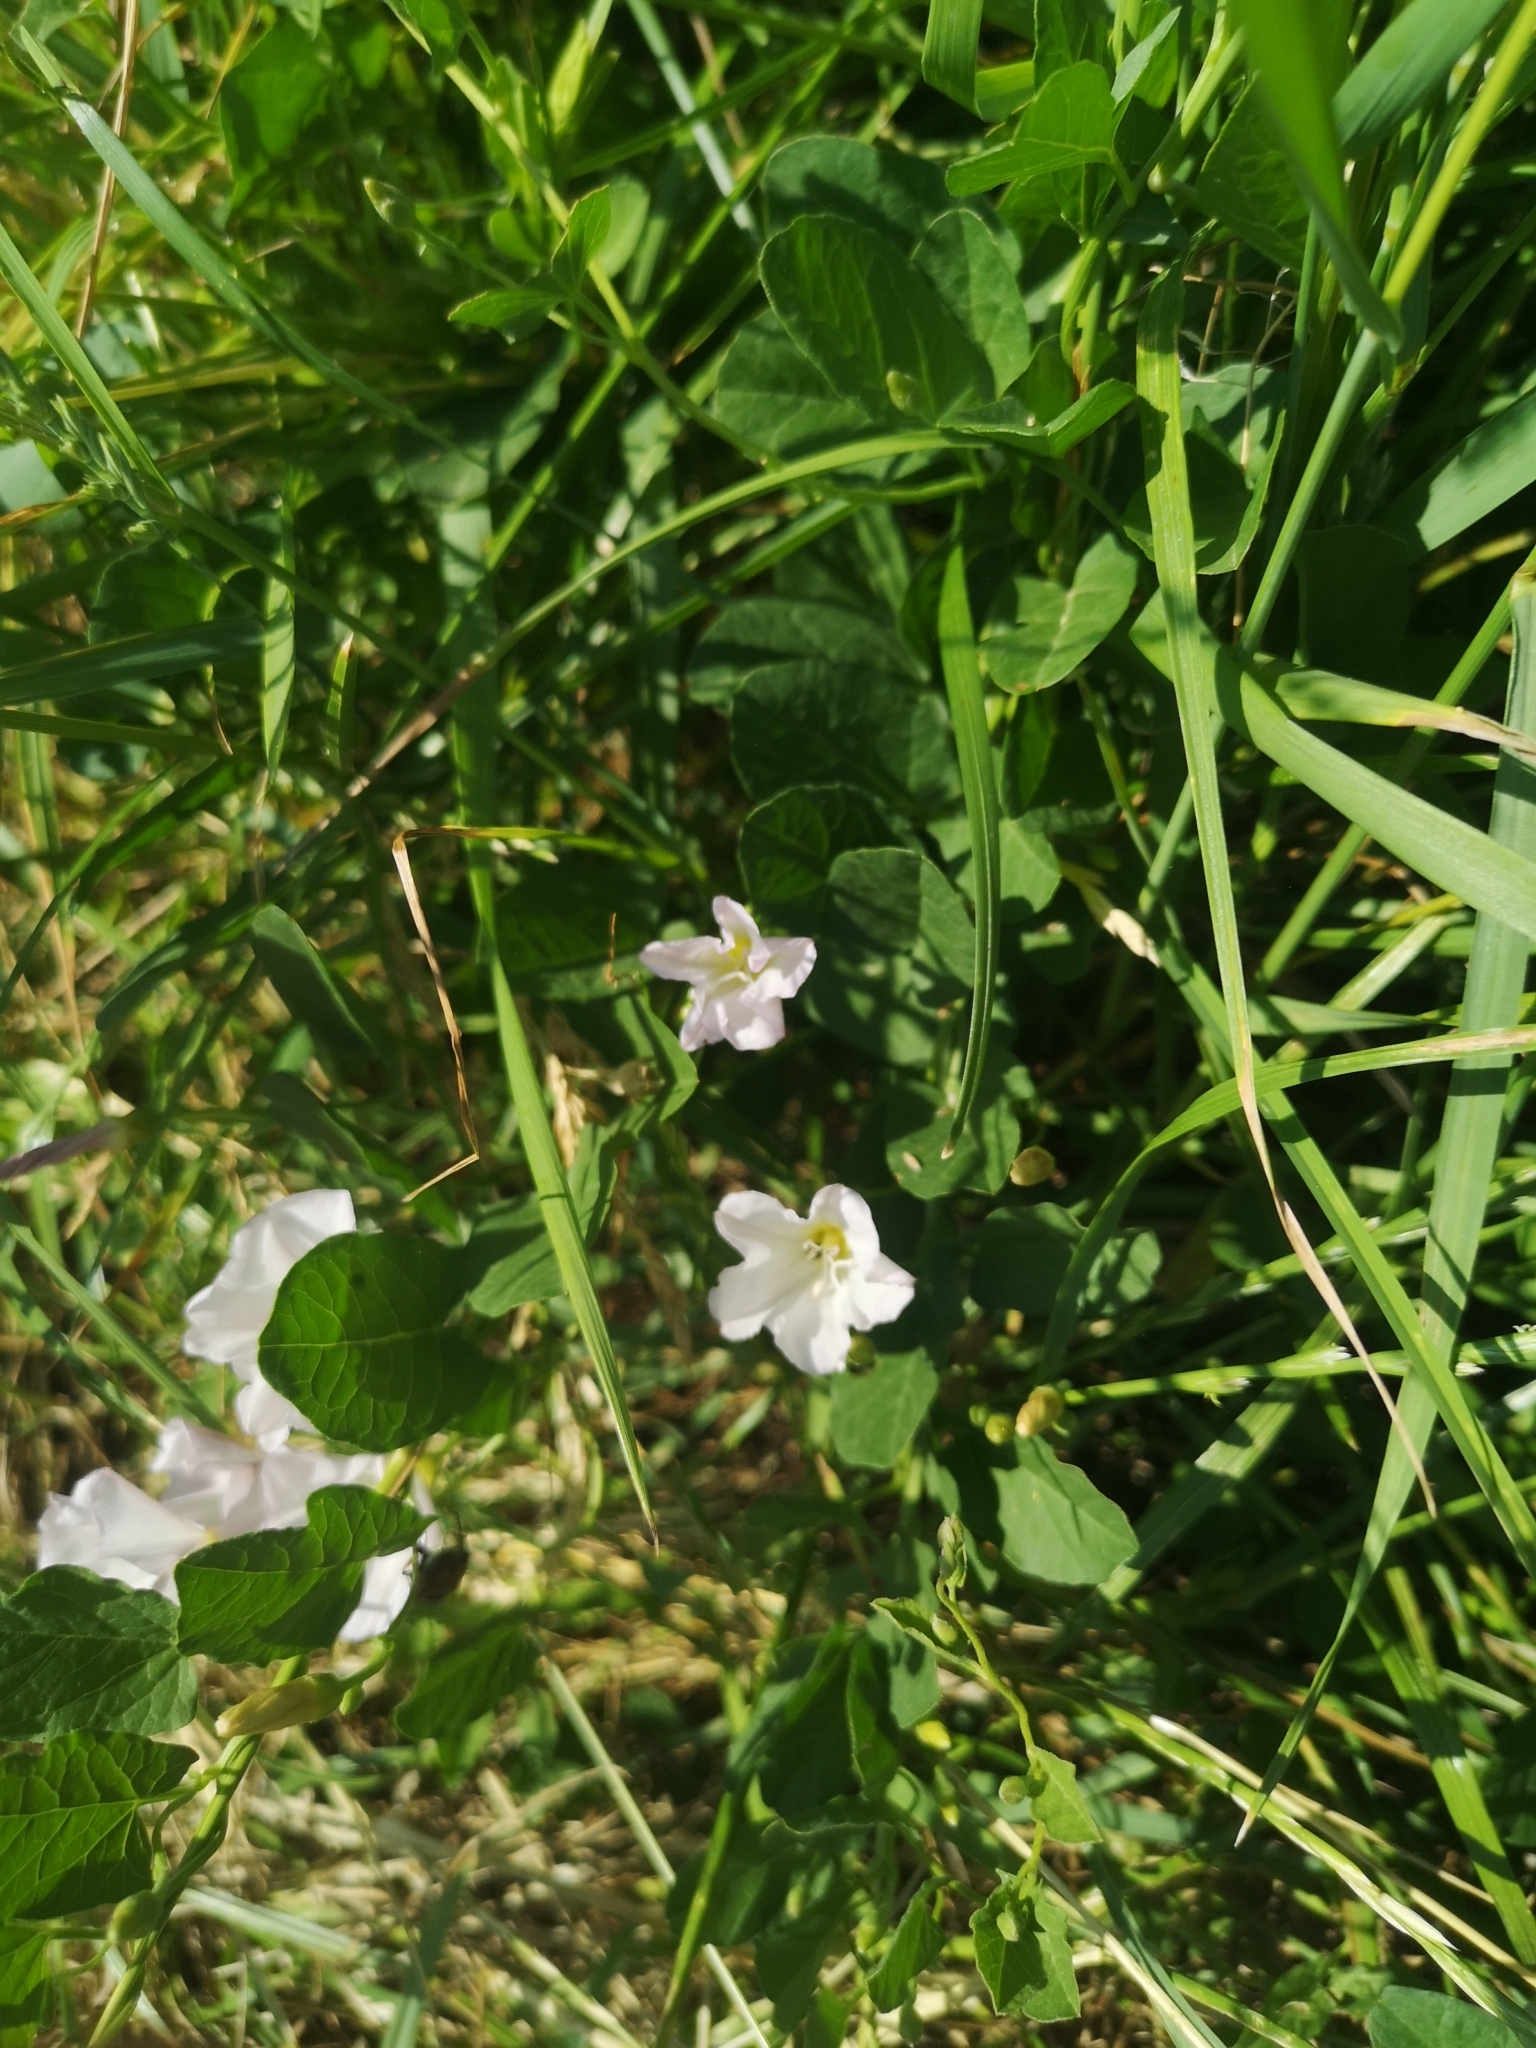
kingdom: Plantae
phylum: Tracheophyta
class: Magnoliopsida
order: Solanales
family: Convolvulaceae
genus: Convolvulus
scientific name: Convolvulus arvensis
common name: Field bindweed
